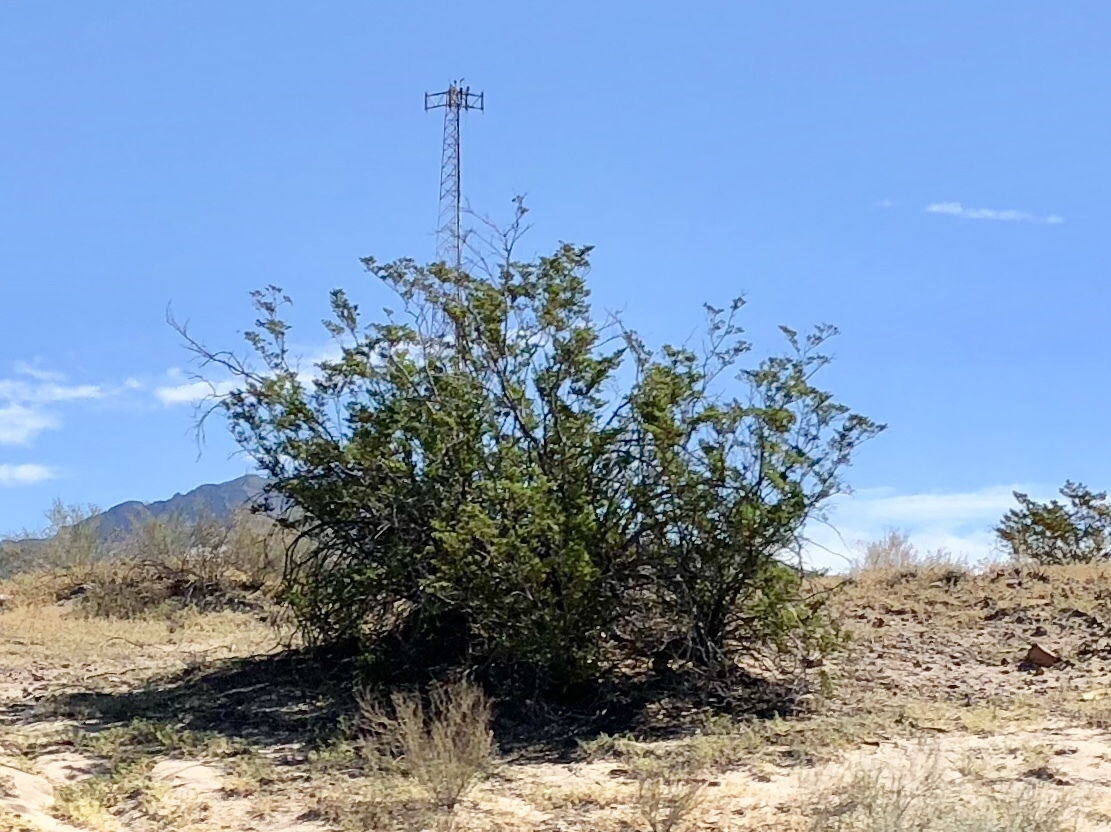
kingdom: Plantae
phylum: Tracheophyta
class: Magnoliopsida
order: Zygophyllales
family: Zygophyllaceae
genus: Larrea
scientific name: Larrea tridentata
